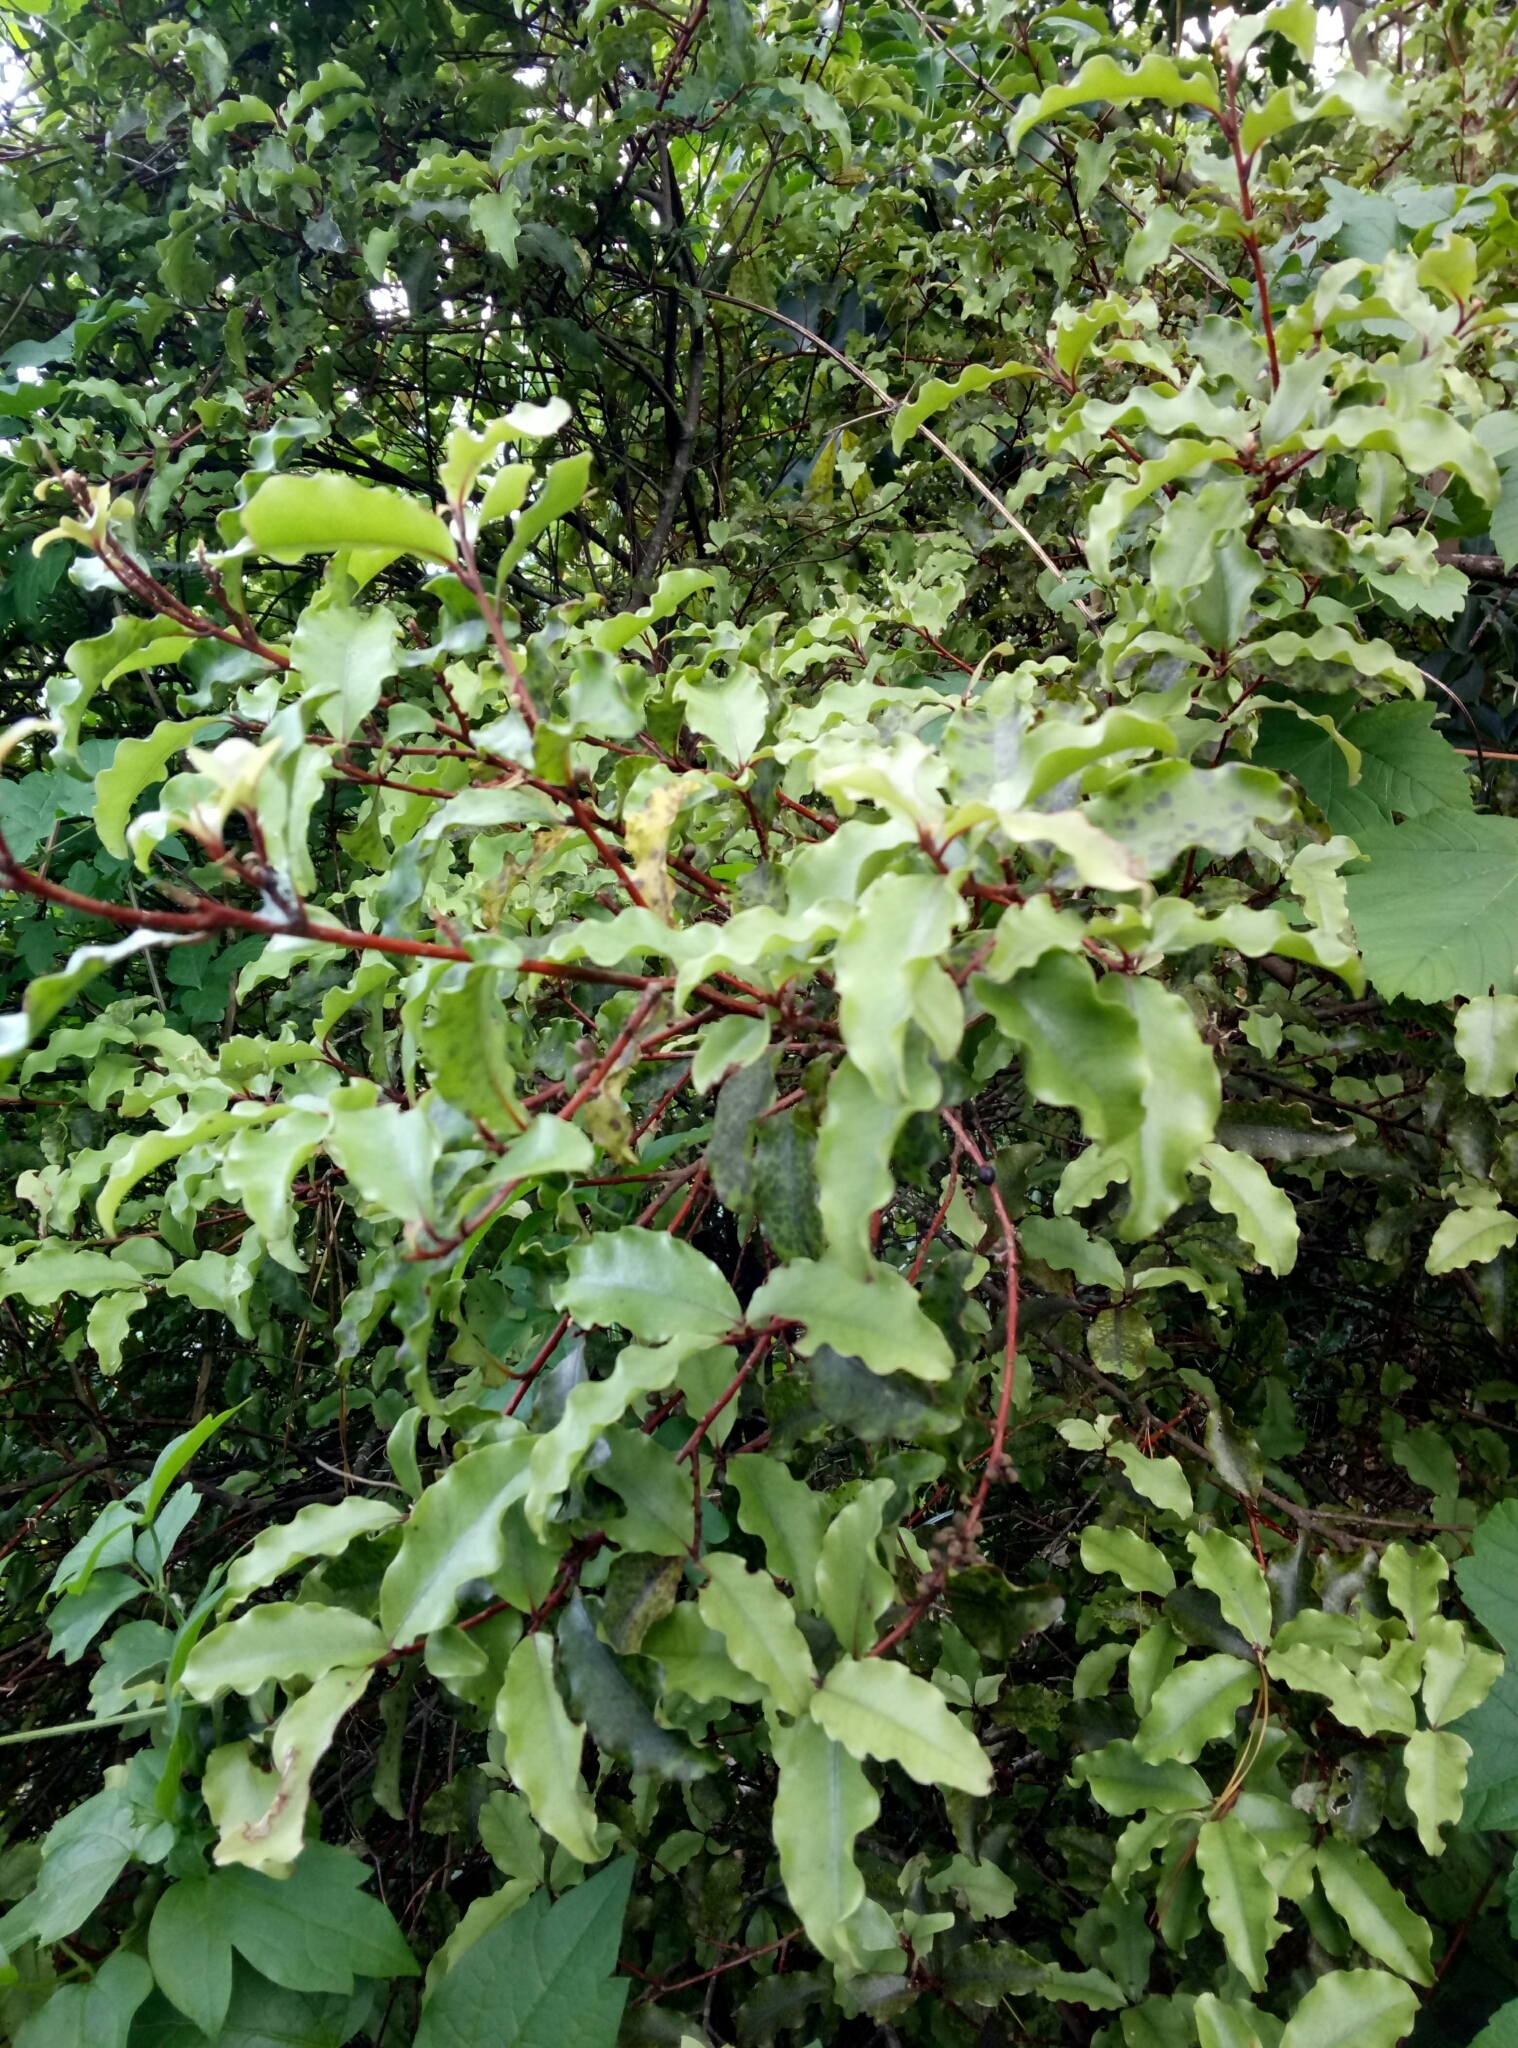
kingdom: Plantae
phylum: Tracheophyta
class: Magnoliopsida
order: Ericales
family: Primulaceae
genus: Myrsine
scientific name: Myrsine australis
